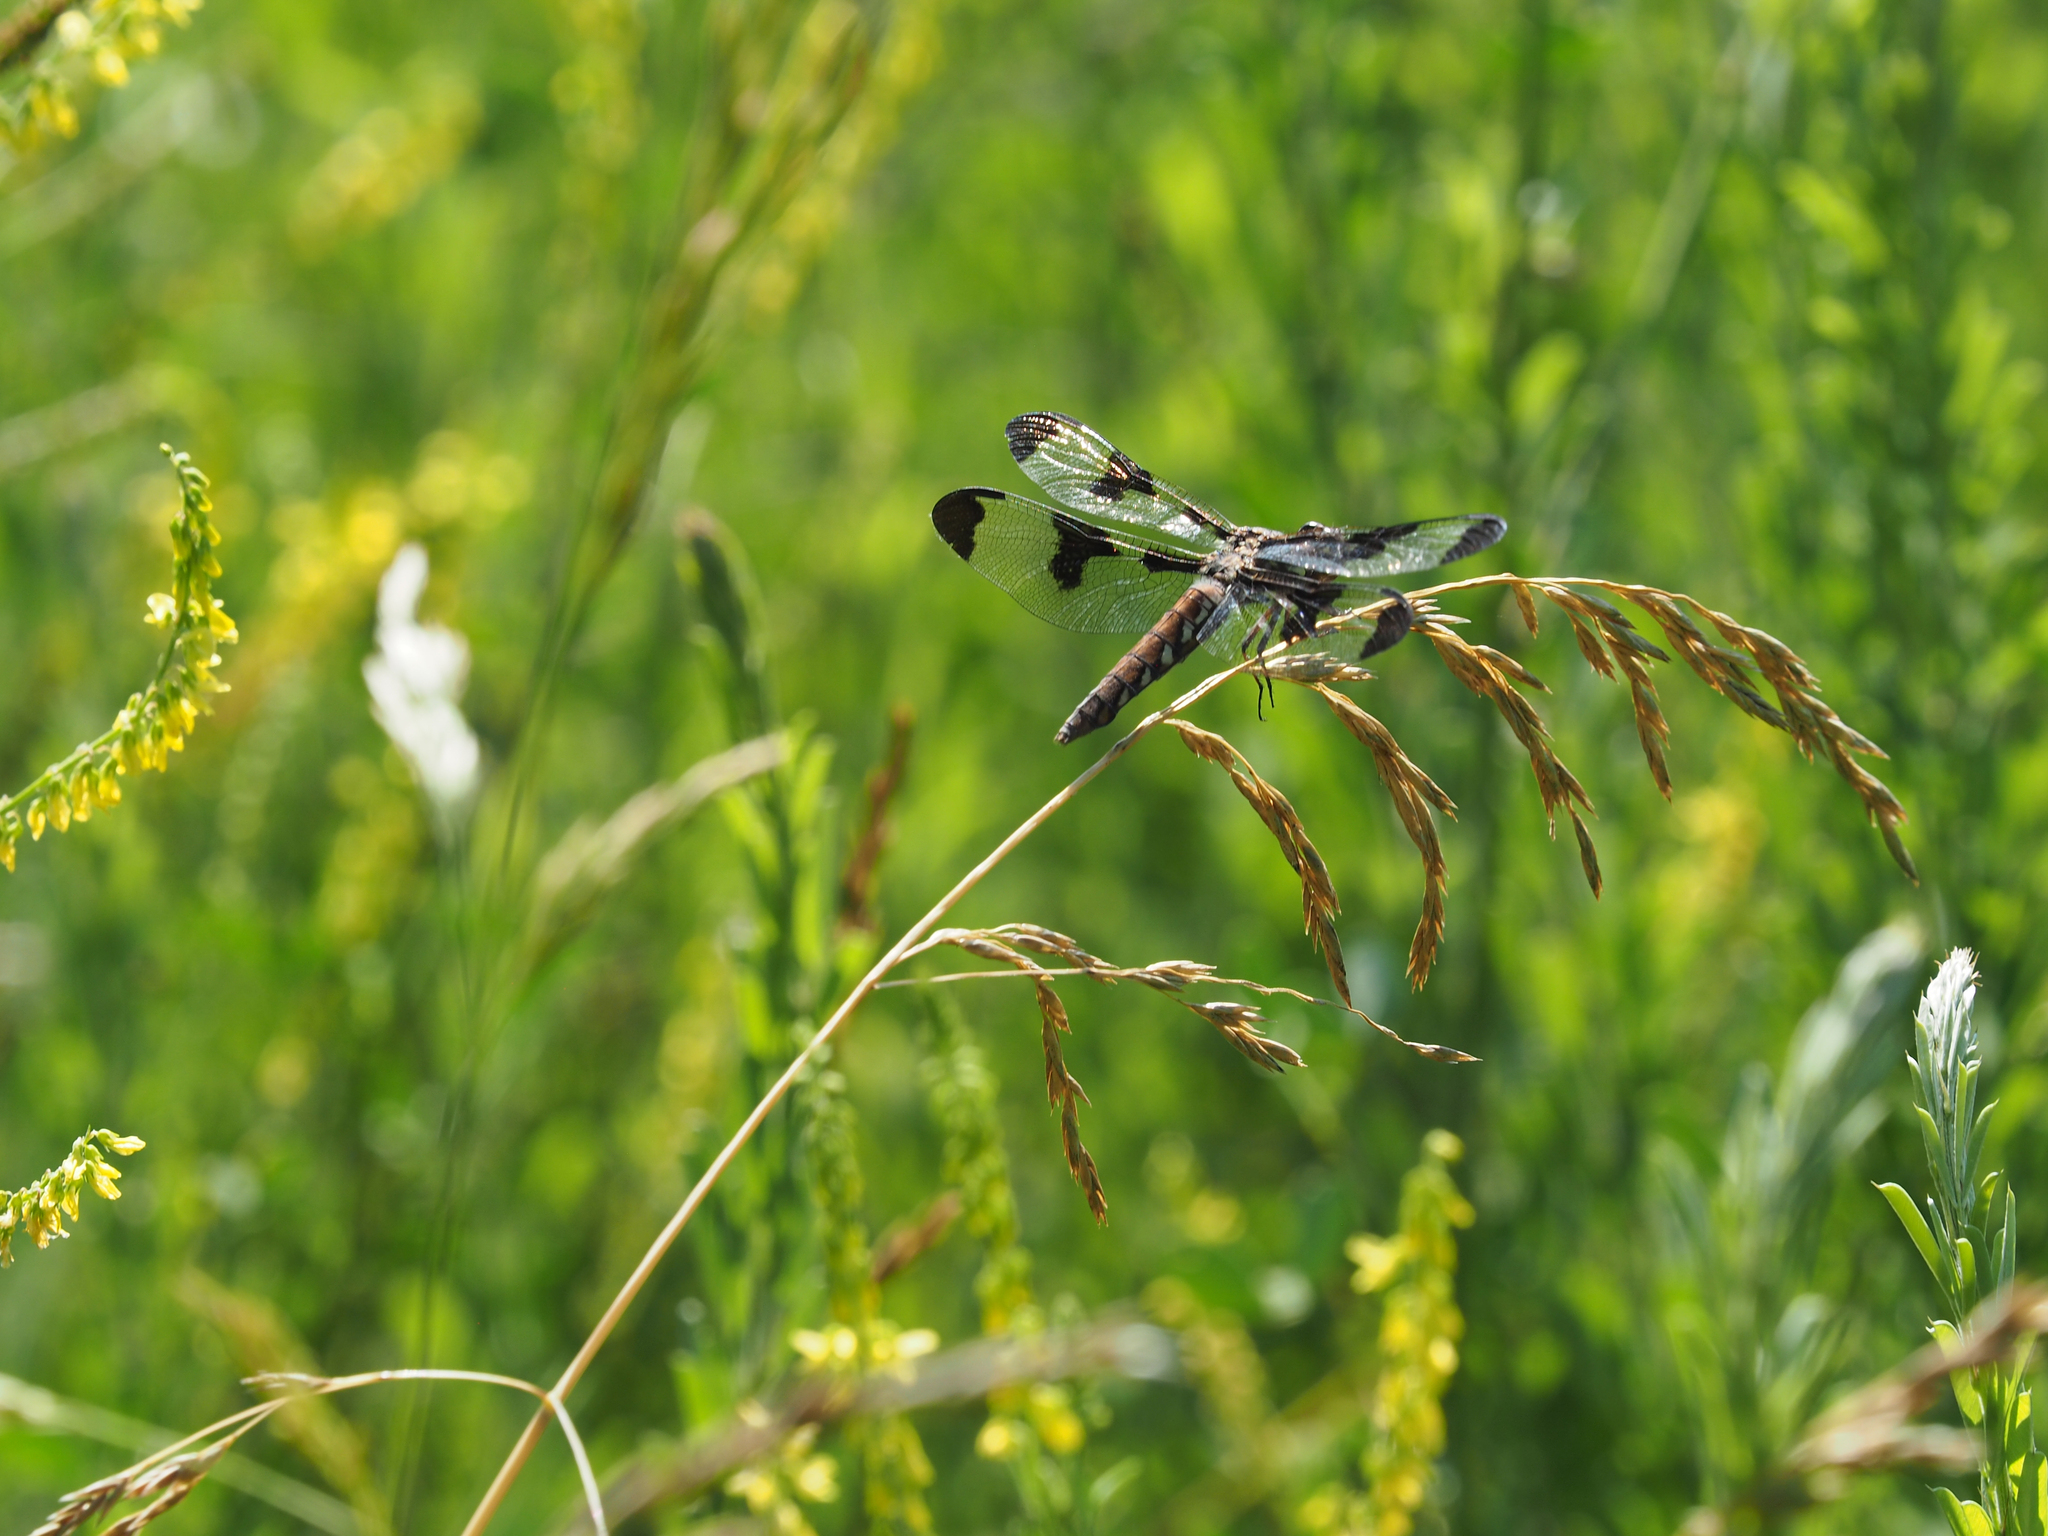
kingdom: Animalia
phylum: Arthropoda
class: Insecta
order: Odonata
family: Libellulidae
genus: Plathemis
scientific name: Plathemis lydia
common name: Common whitetail
